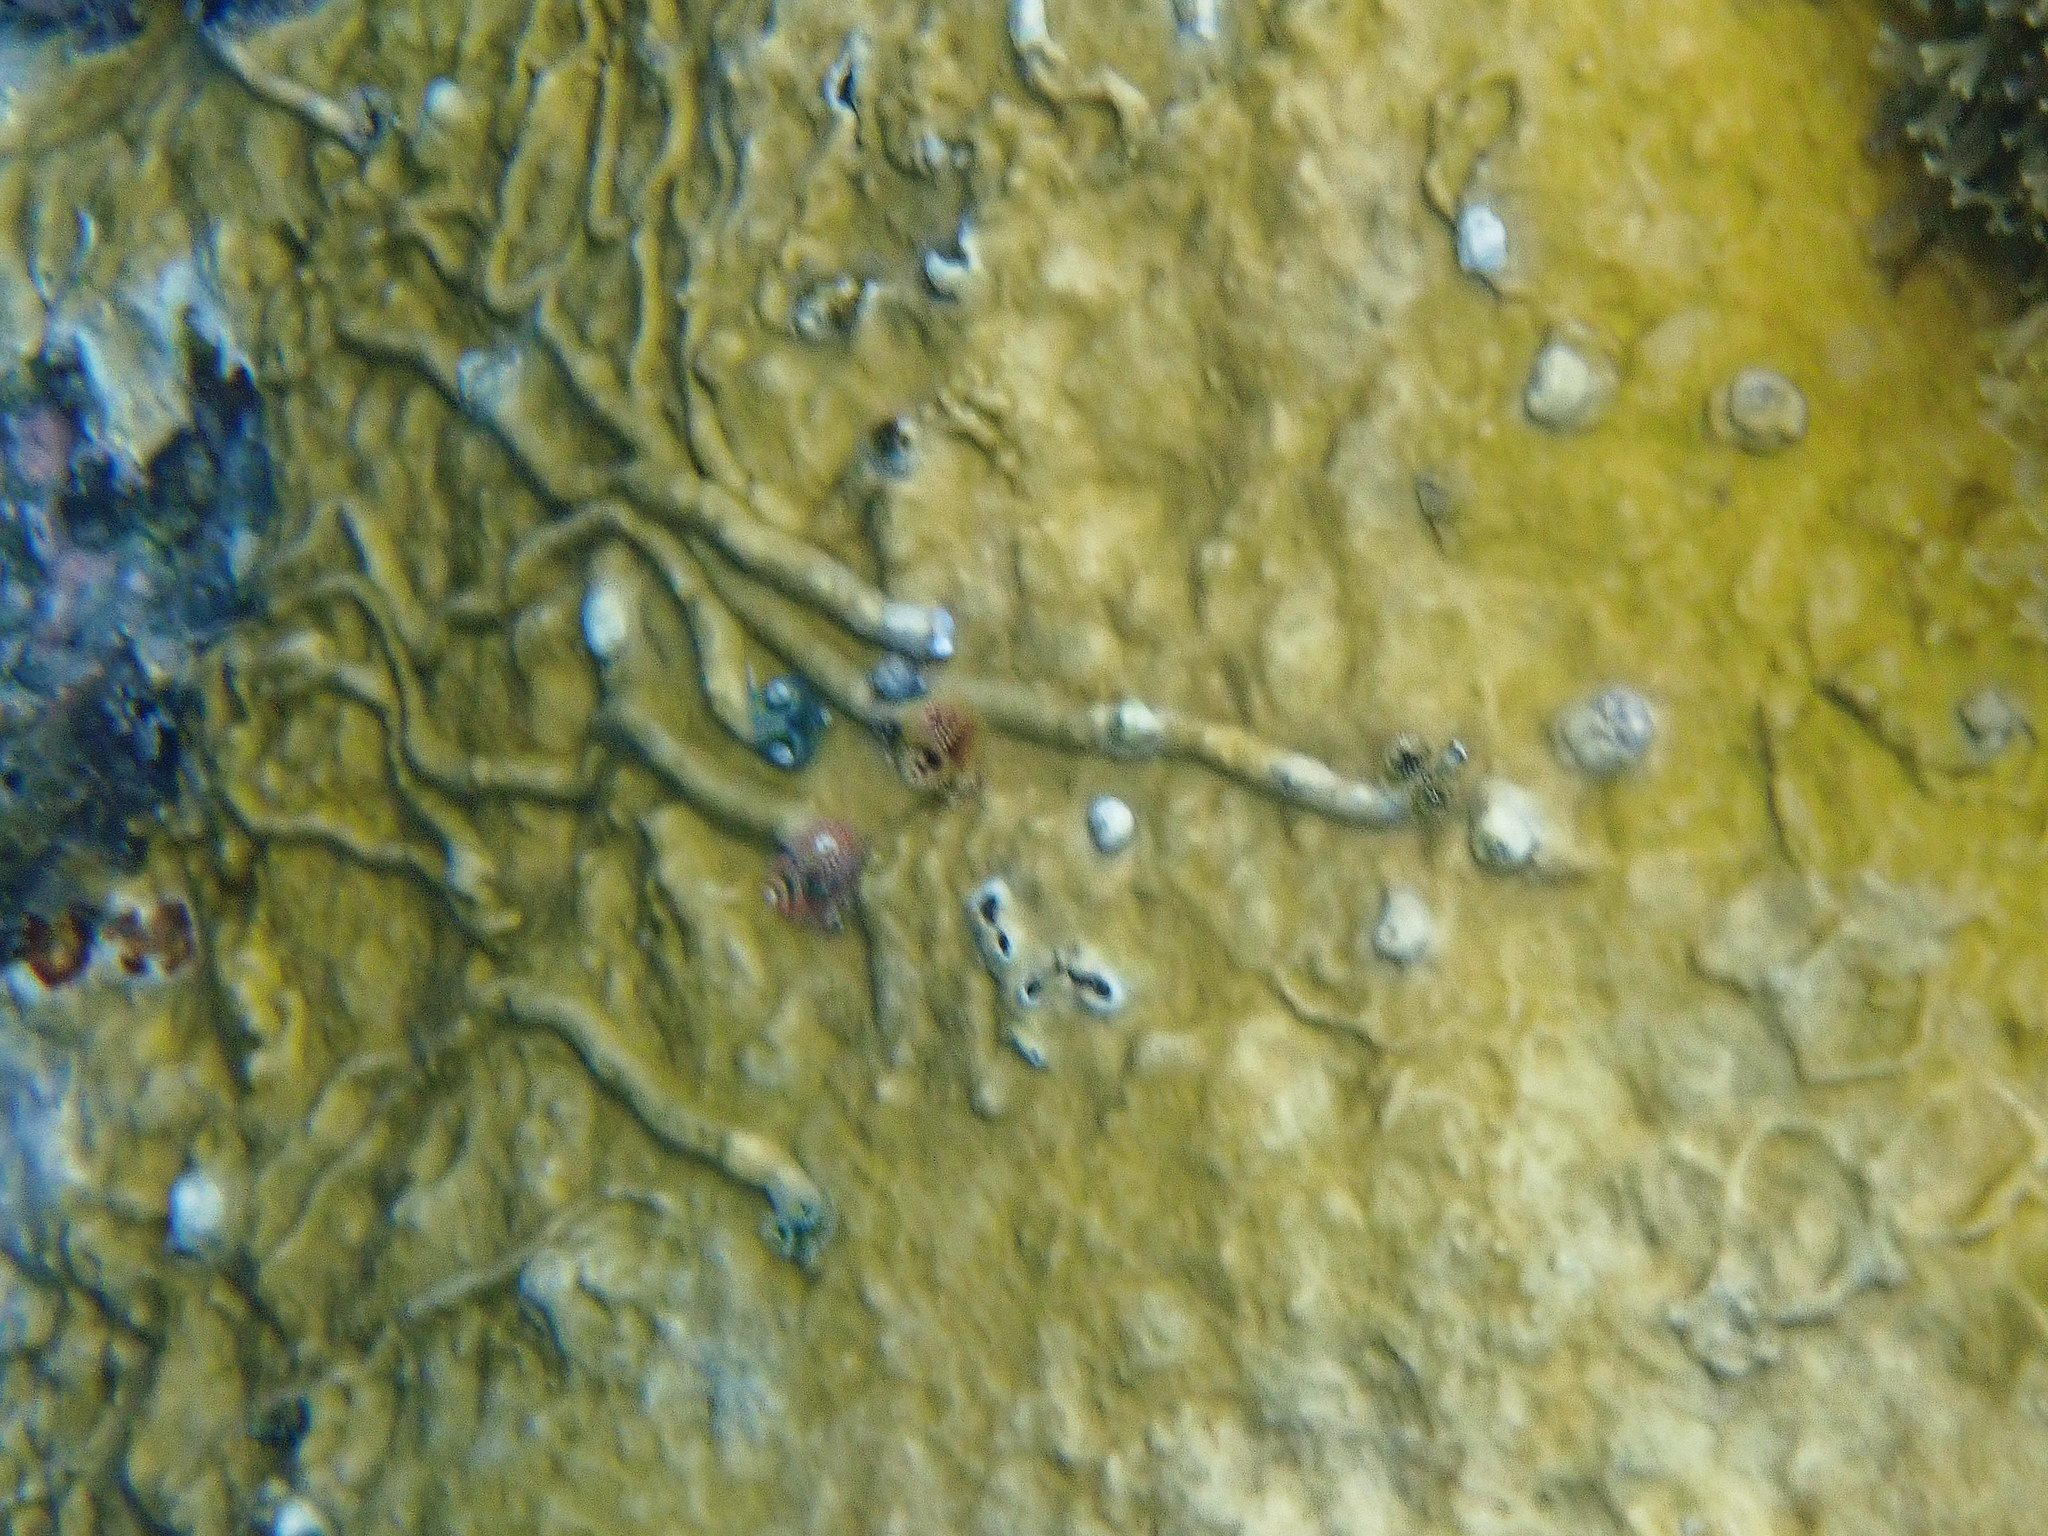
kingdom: Animalia
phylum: Annelida
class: Polychaeta
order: Sabellida
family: Serpulidae
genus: Spirobranchus
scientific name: Spirobranchus giganteus
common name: Christmas tree worm
